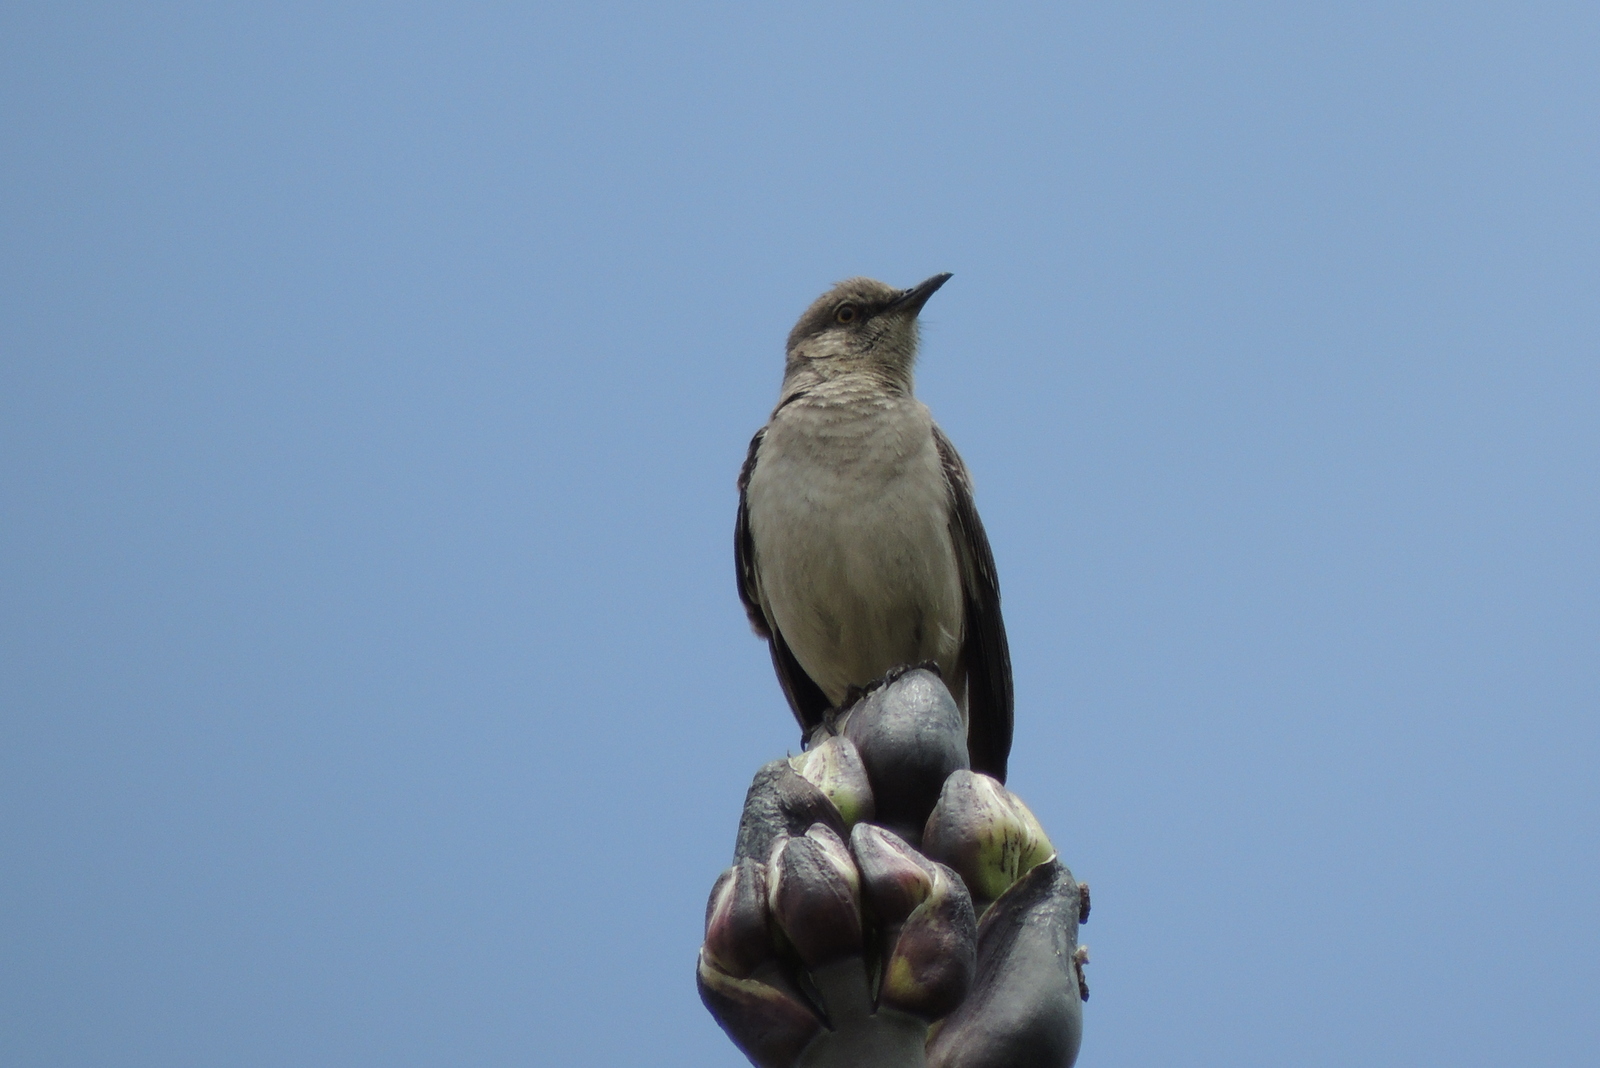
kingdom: Animalia
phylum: Chordata
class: Aves
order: Passeriformes
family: Mimidae
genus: Mimus
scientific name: Mimus polyglottos
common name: Northern mockingbird
